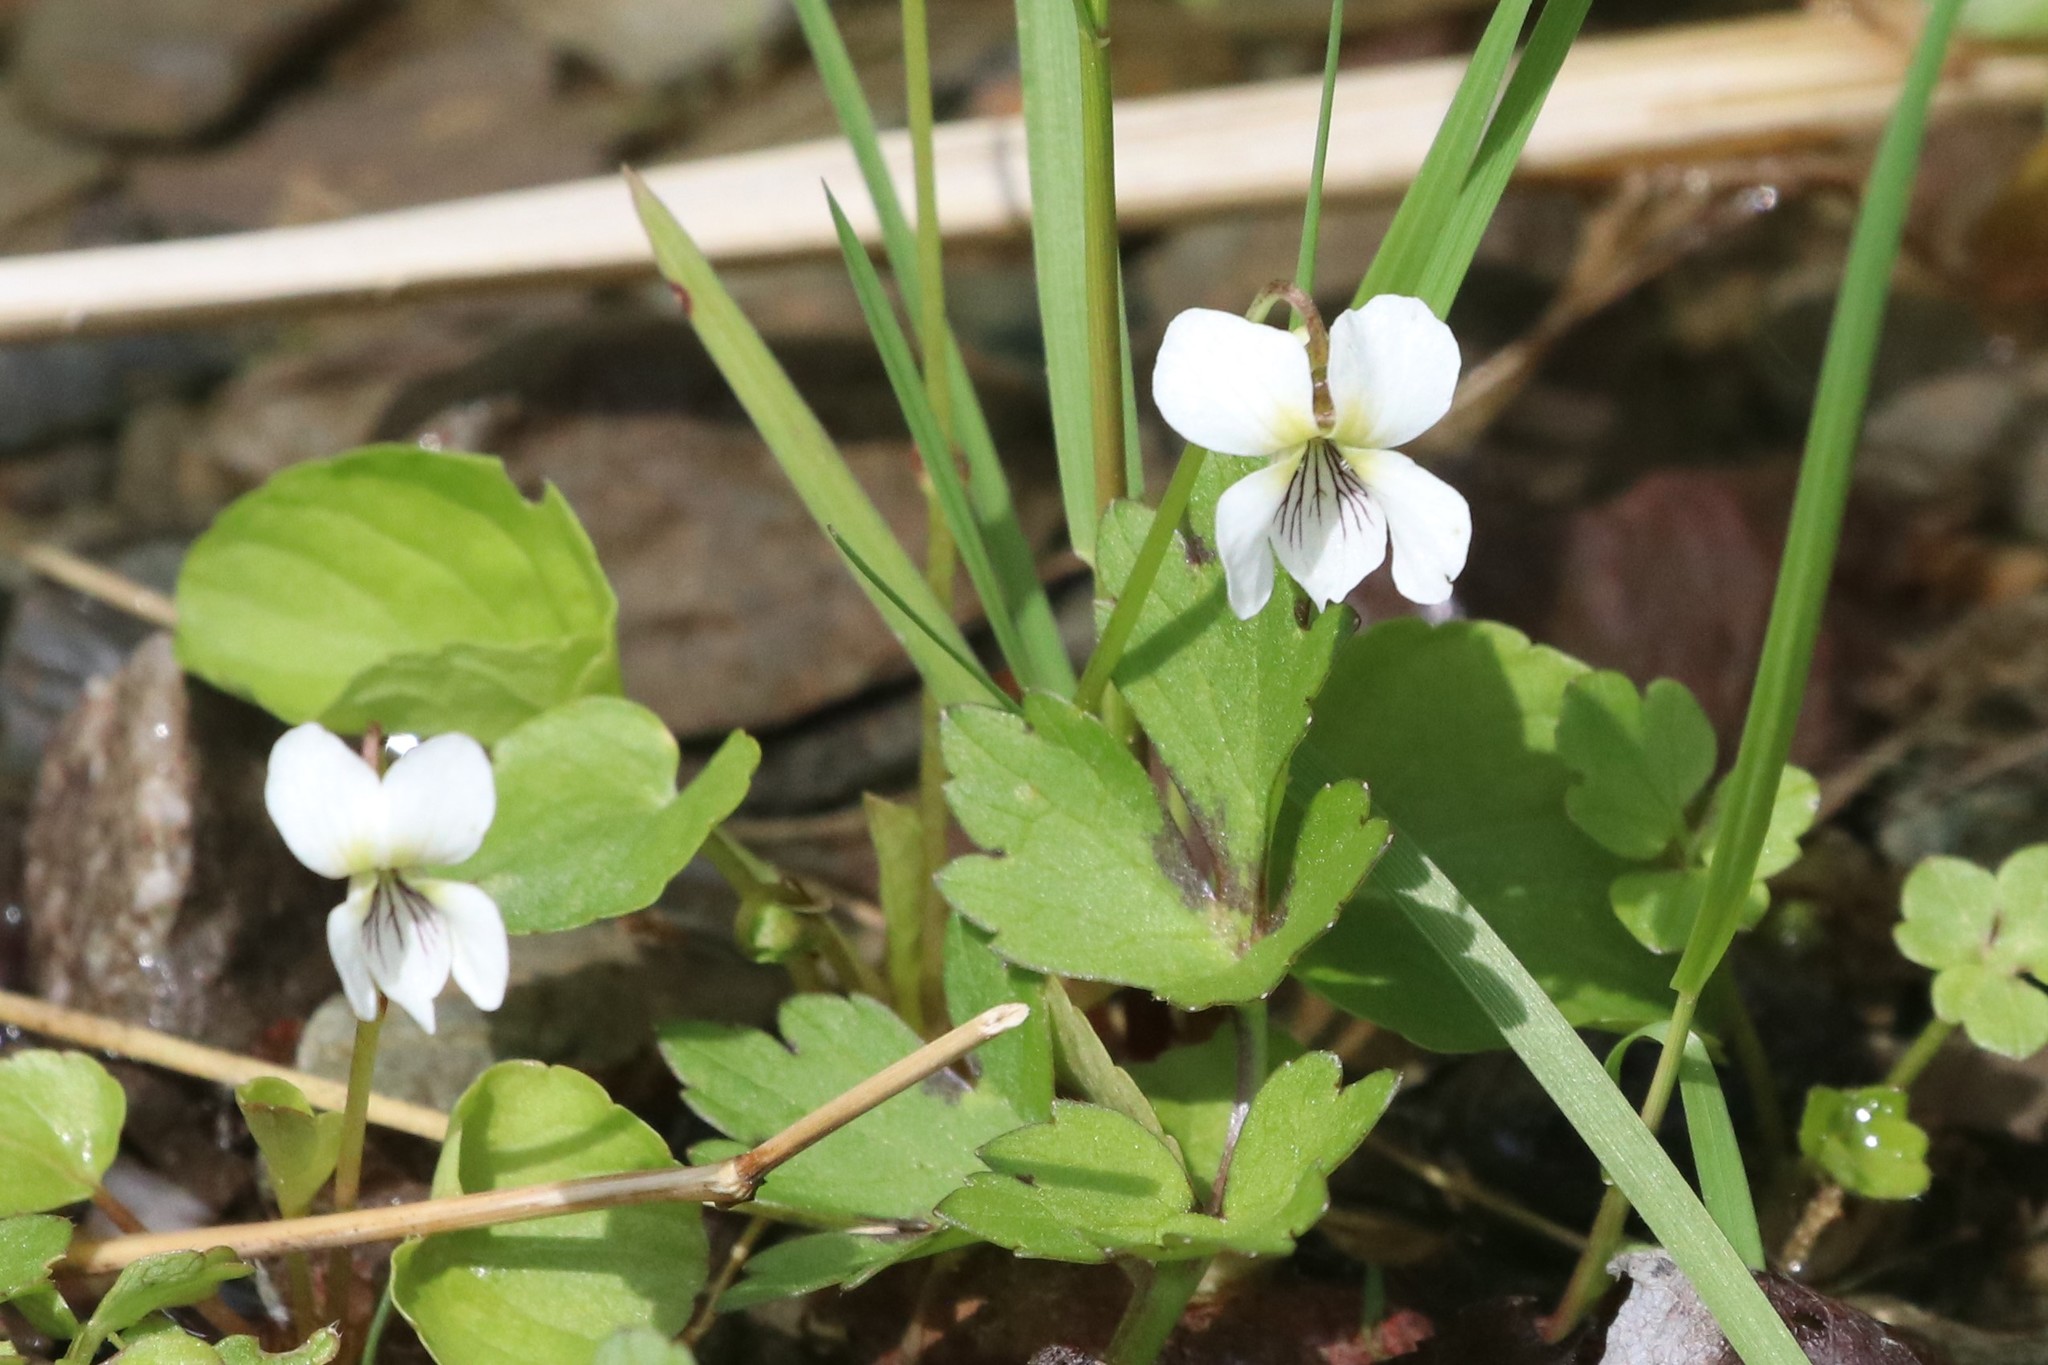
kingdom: Plantae
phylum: Tracheophyta
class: Magnoliopsida
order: Malpighiales
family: Violaceae
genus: Viola
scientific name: Viola minuscula
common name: Northern white violet
